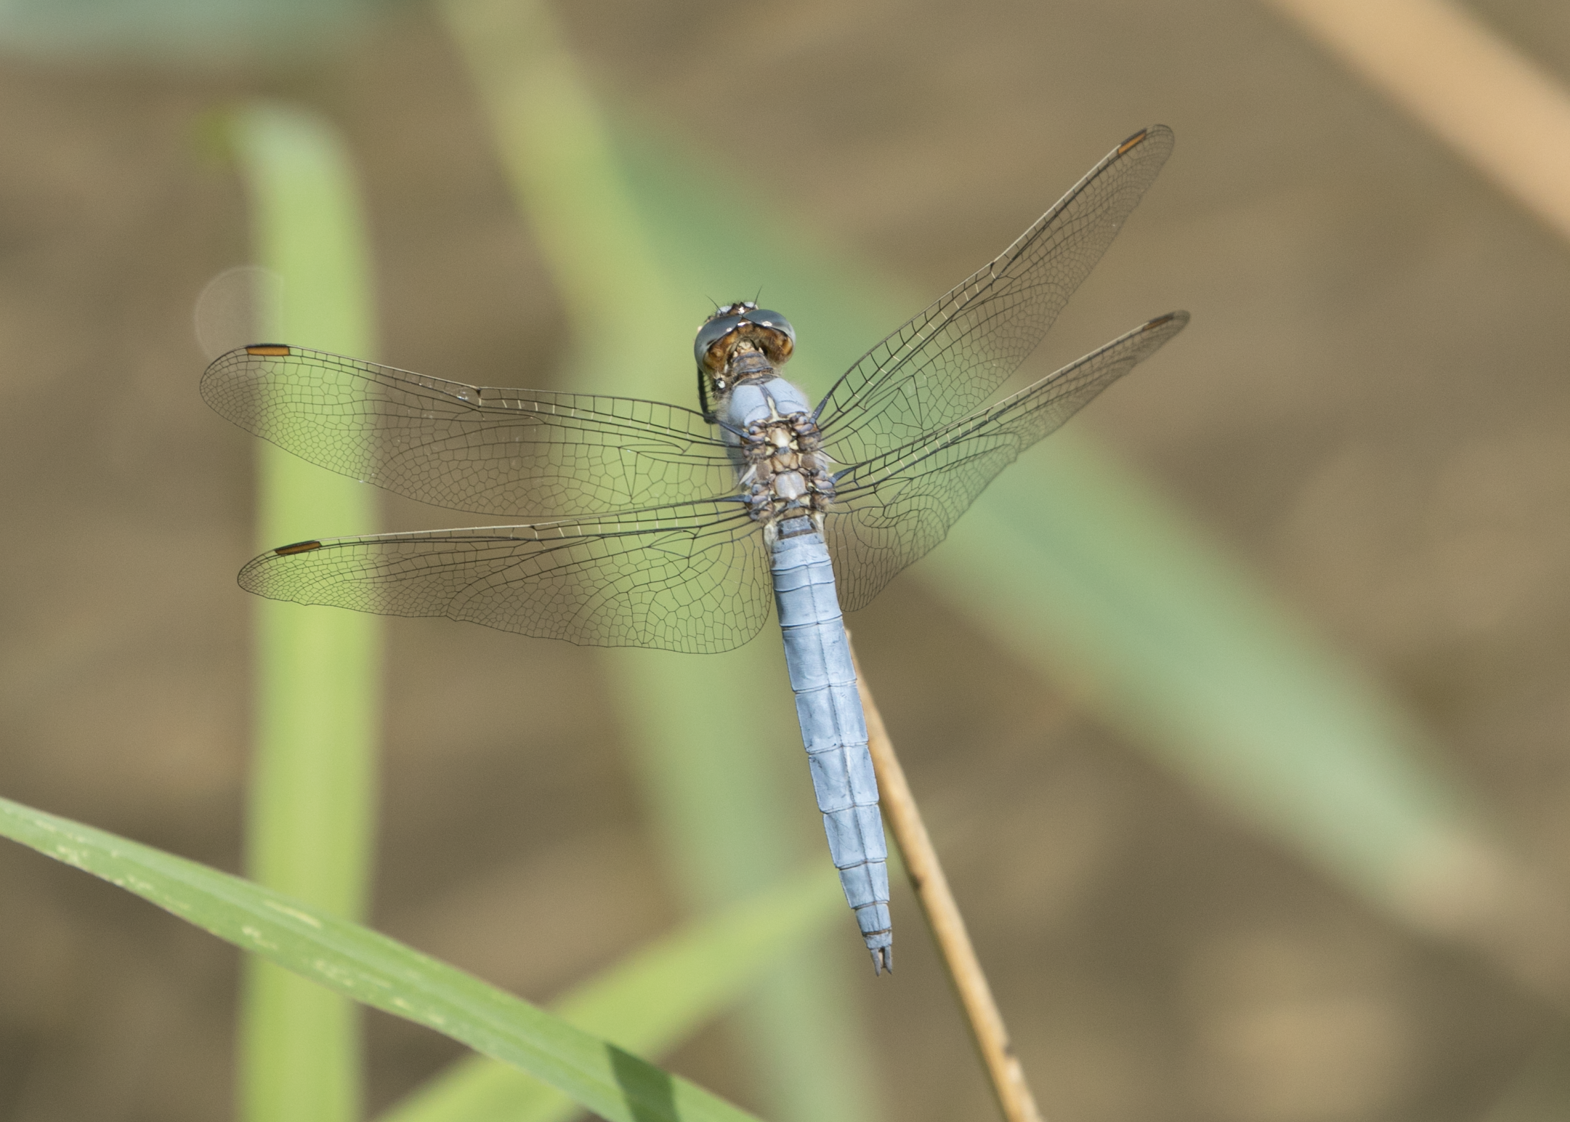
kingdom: Animalia
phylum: Arthropoda
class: Insecta
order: Odonata
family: Libellulidae
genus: Orthetrum
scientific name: Orthetrum brunneum
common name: Southern skimmer
